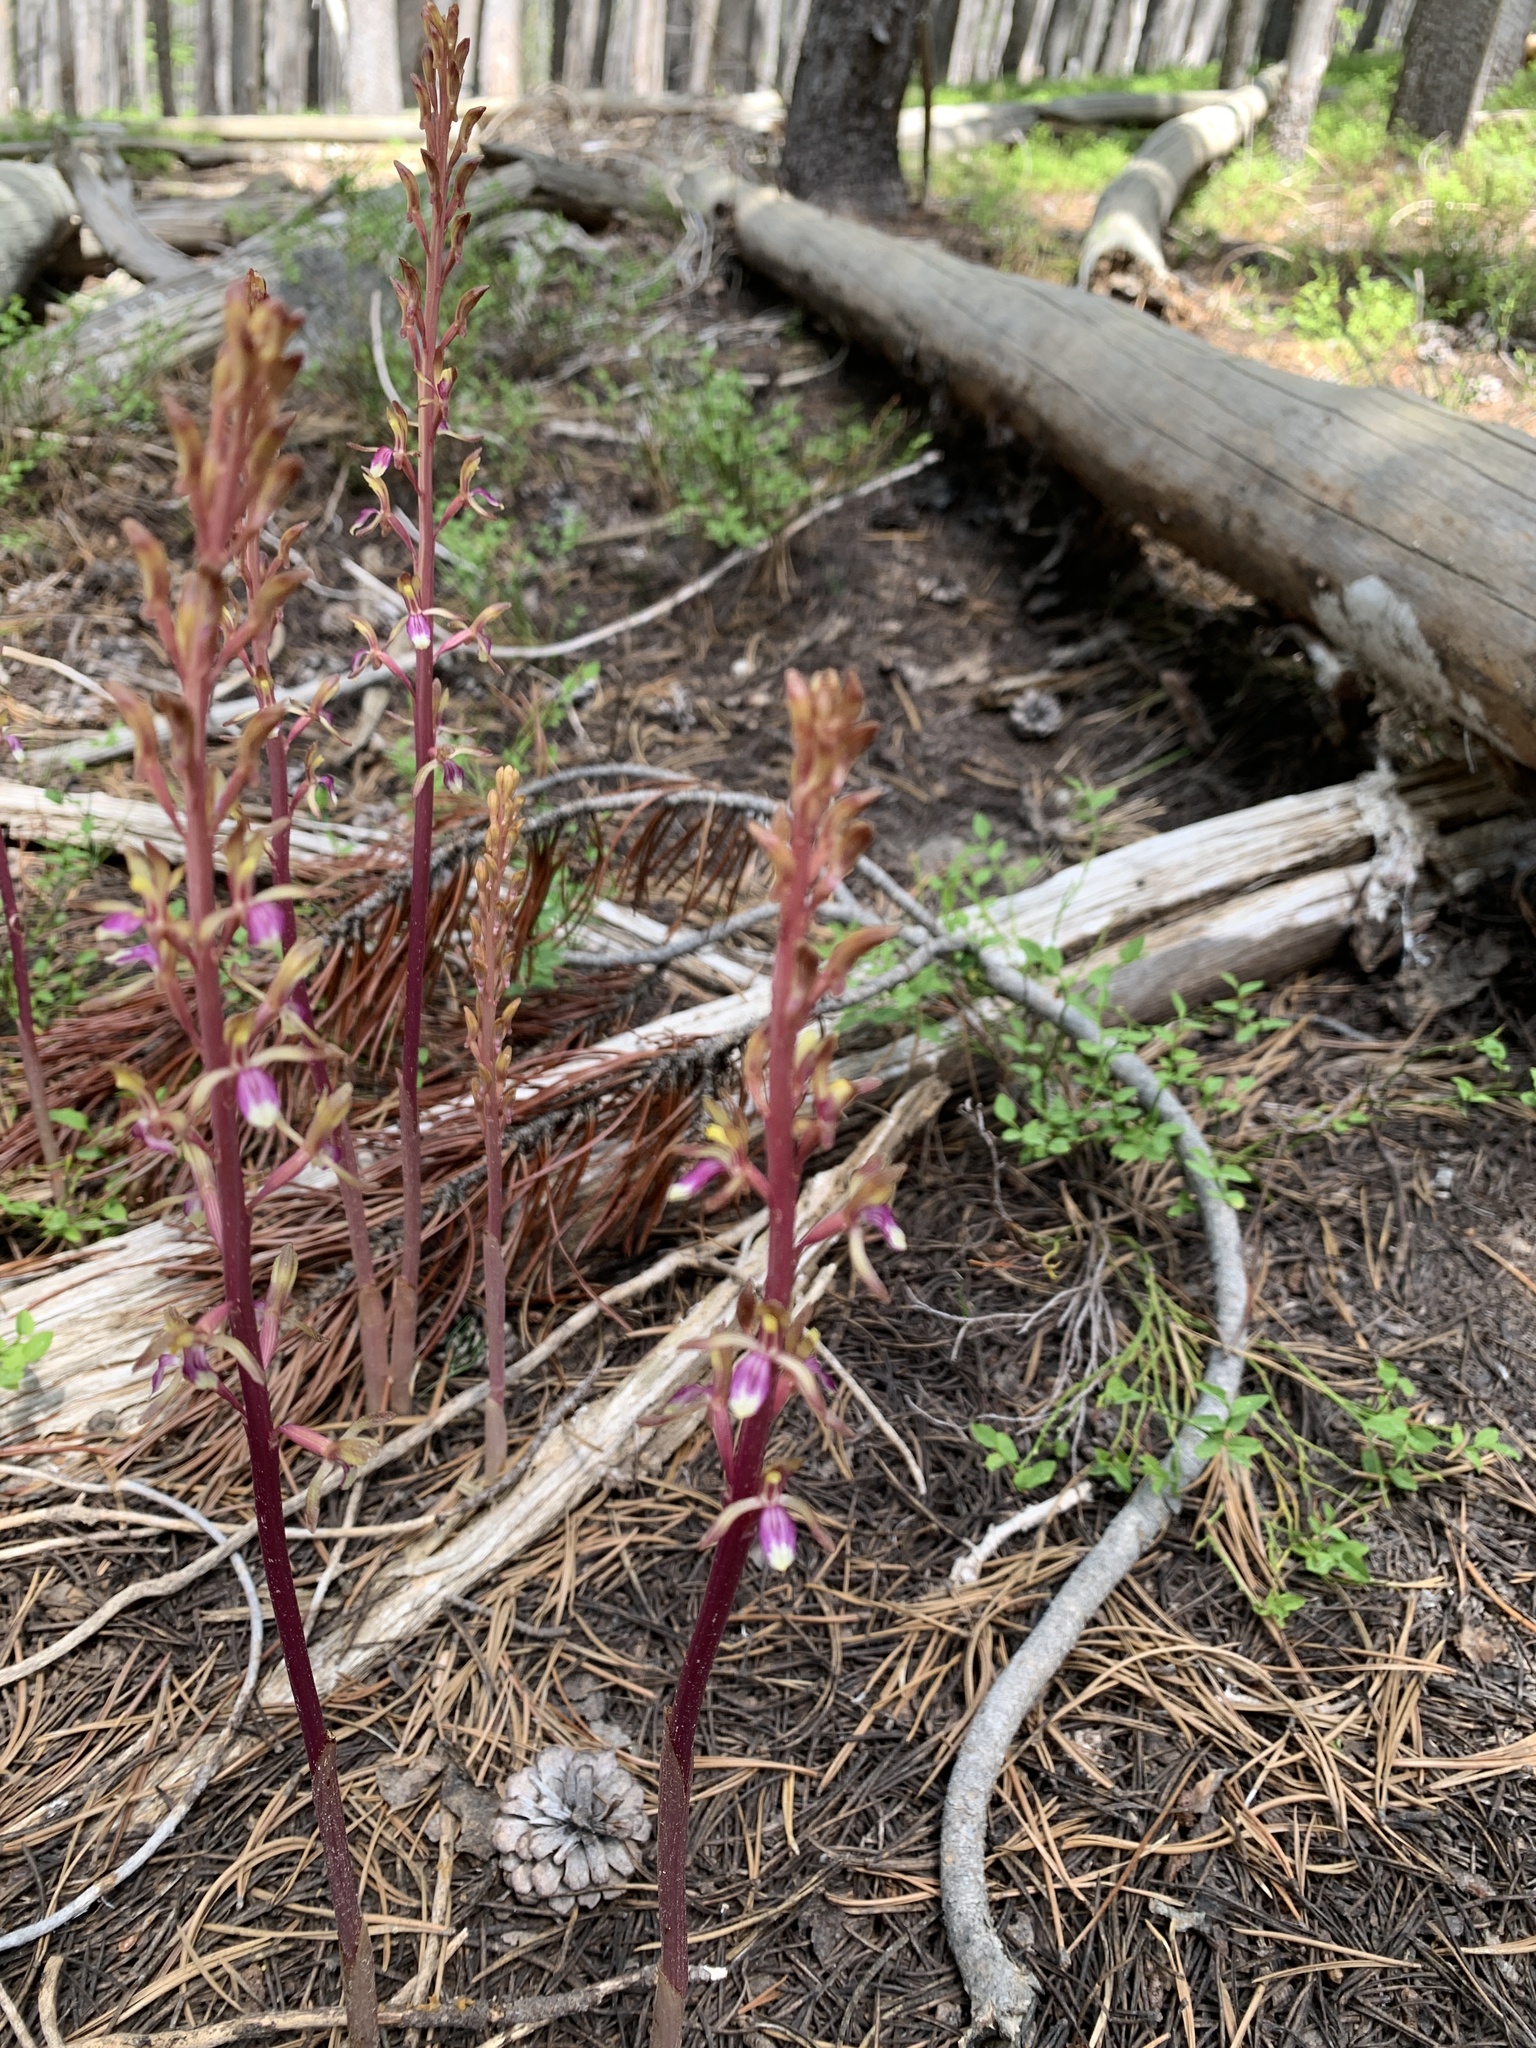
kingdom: Plantae
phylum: Tracheophyta
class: Liliopsida
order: Asparagales
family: Orchidaceae
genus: Corallorhiza
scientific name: Corallorhiza mertensiana
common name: Pacific coralroot
